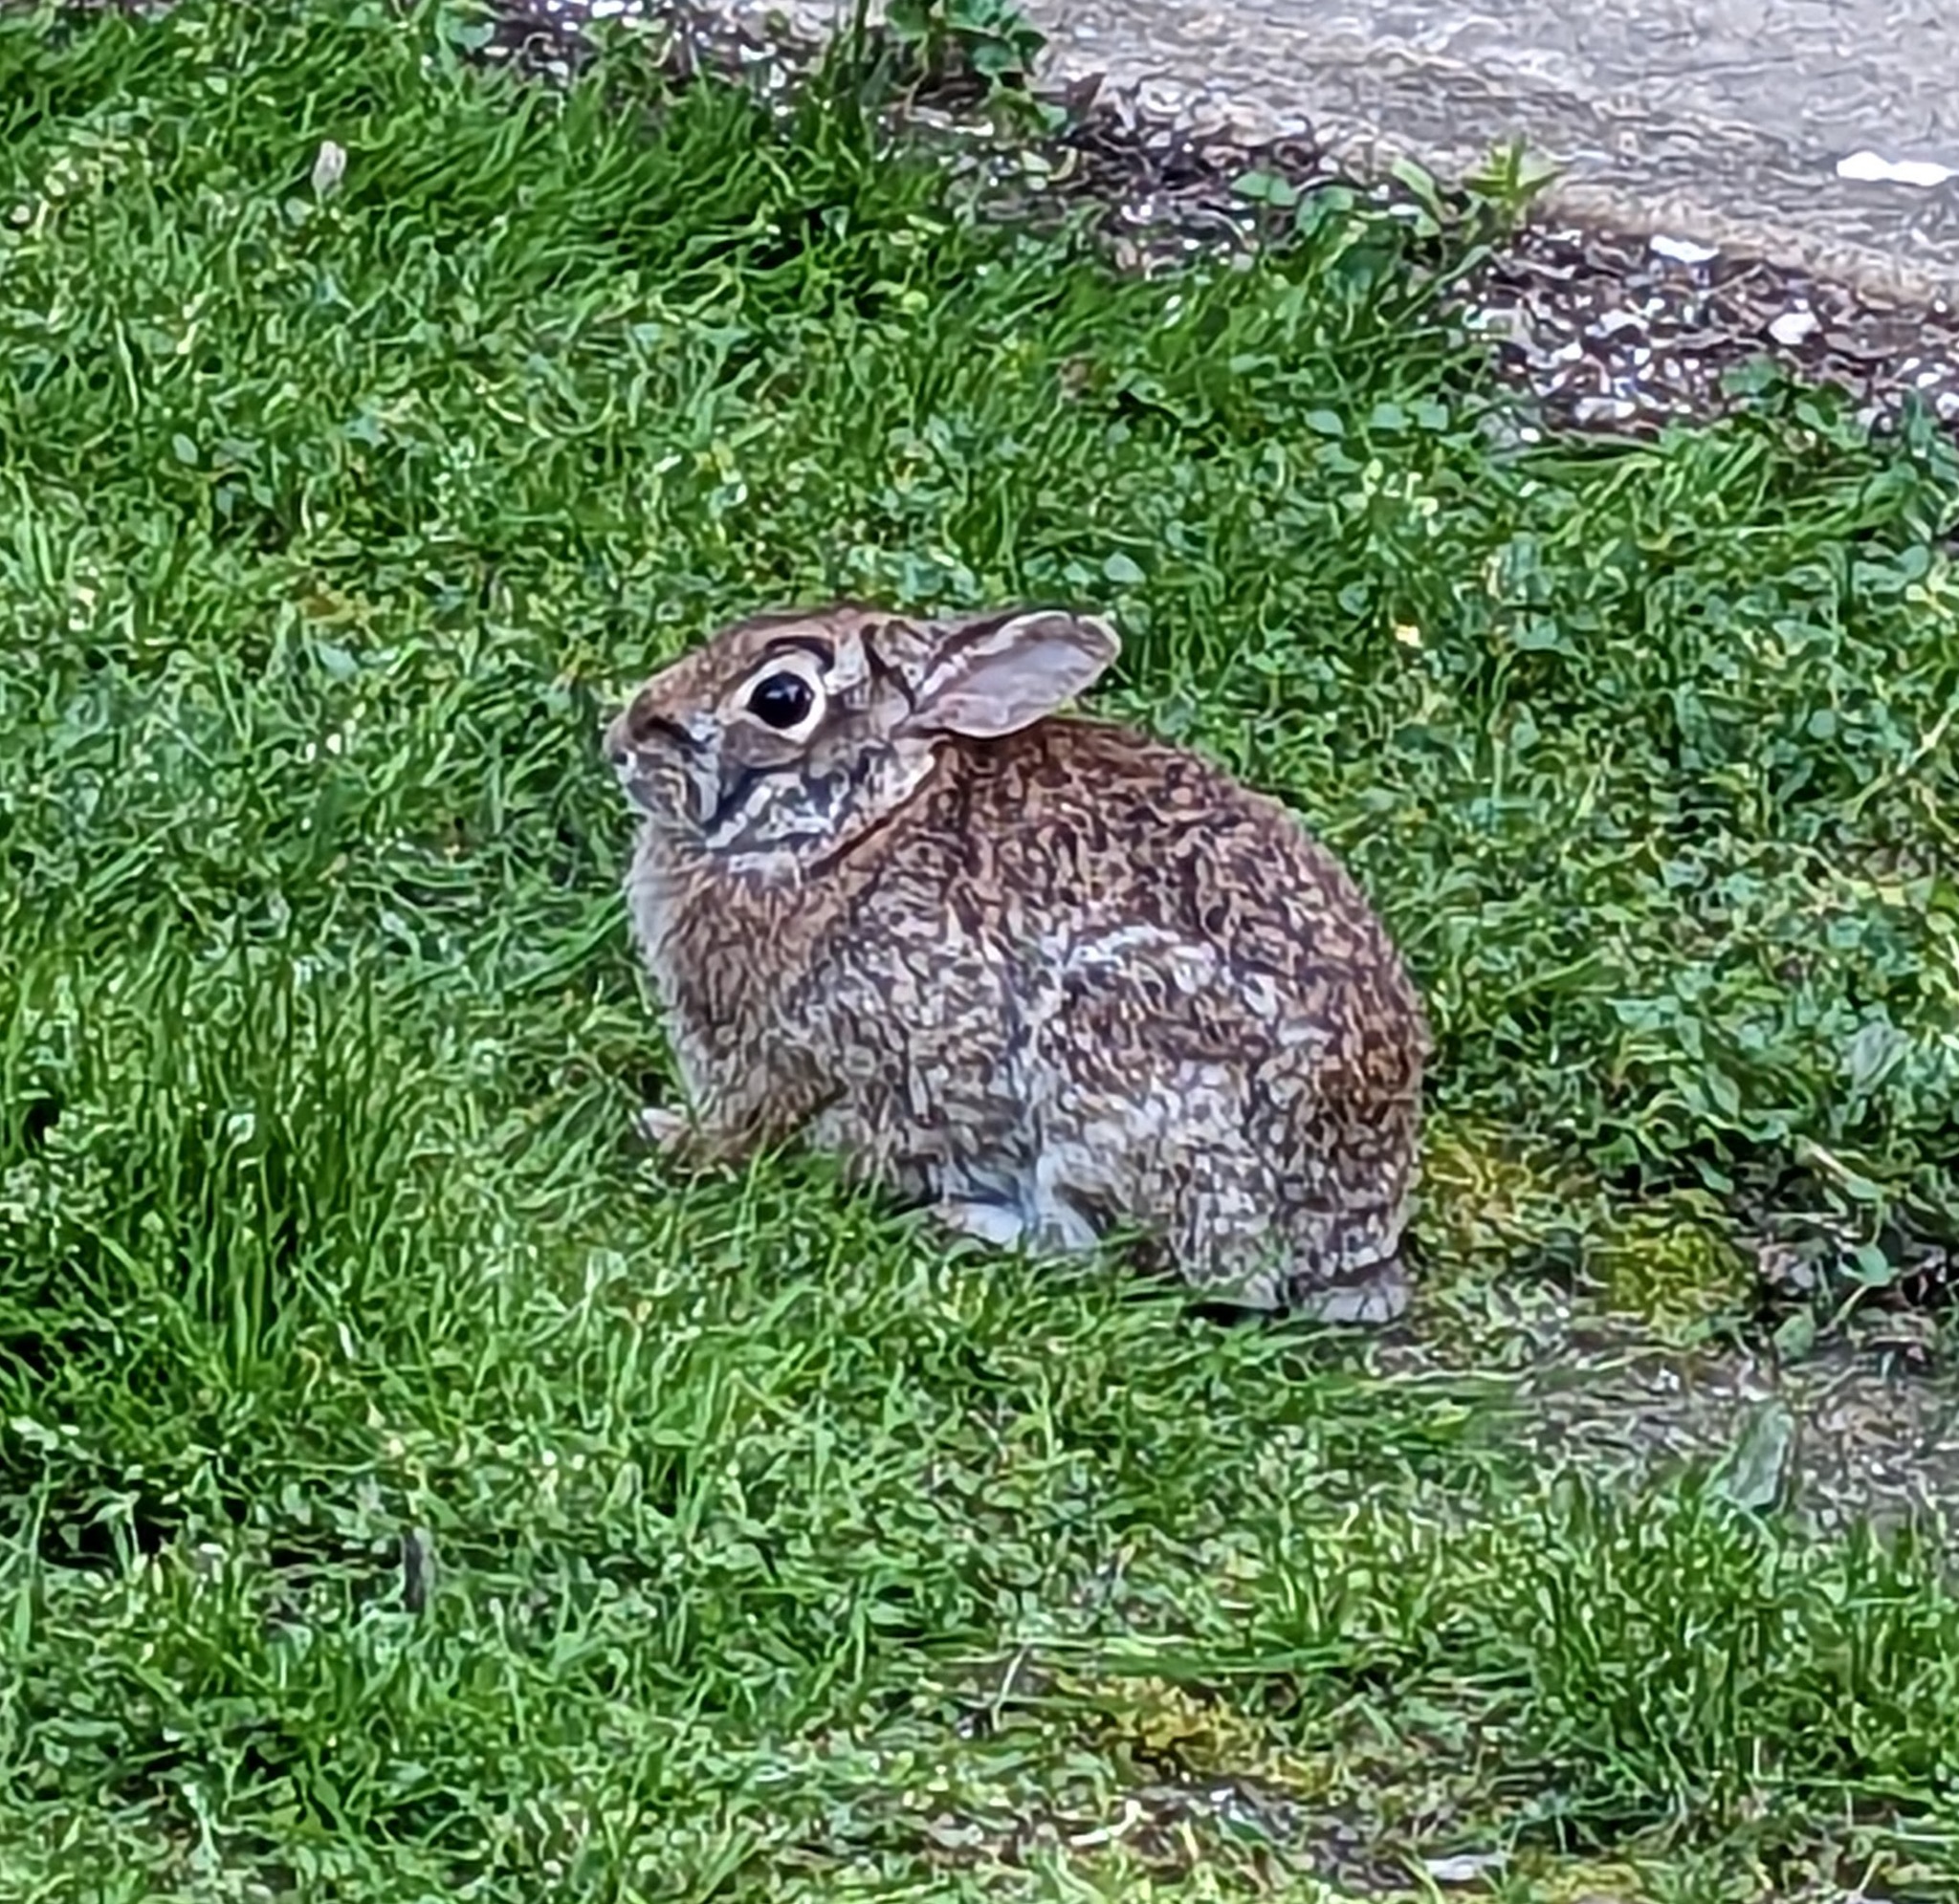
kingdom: Animalia
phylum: Chordata
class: Mammalia
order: Lagomorpha
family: Leporidae
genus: Sylvilagus
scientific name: Sylvilagus floridanus
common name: Eastern cottontail
